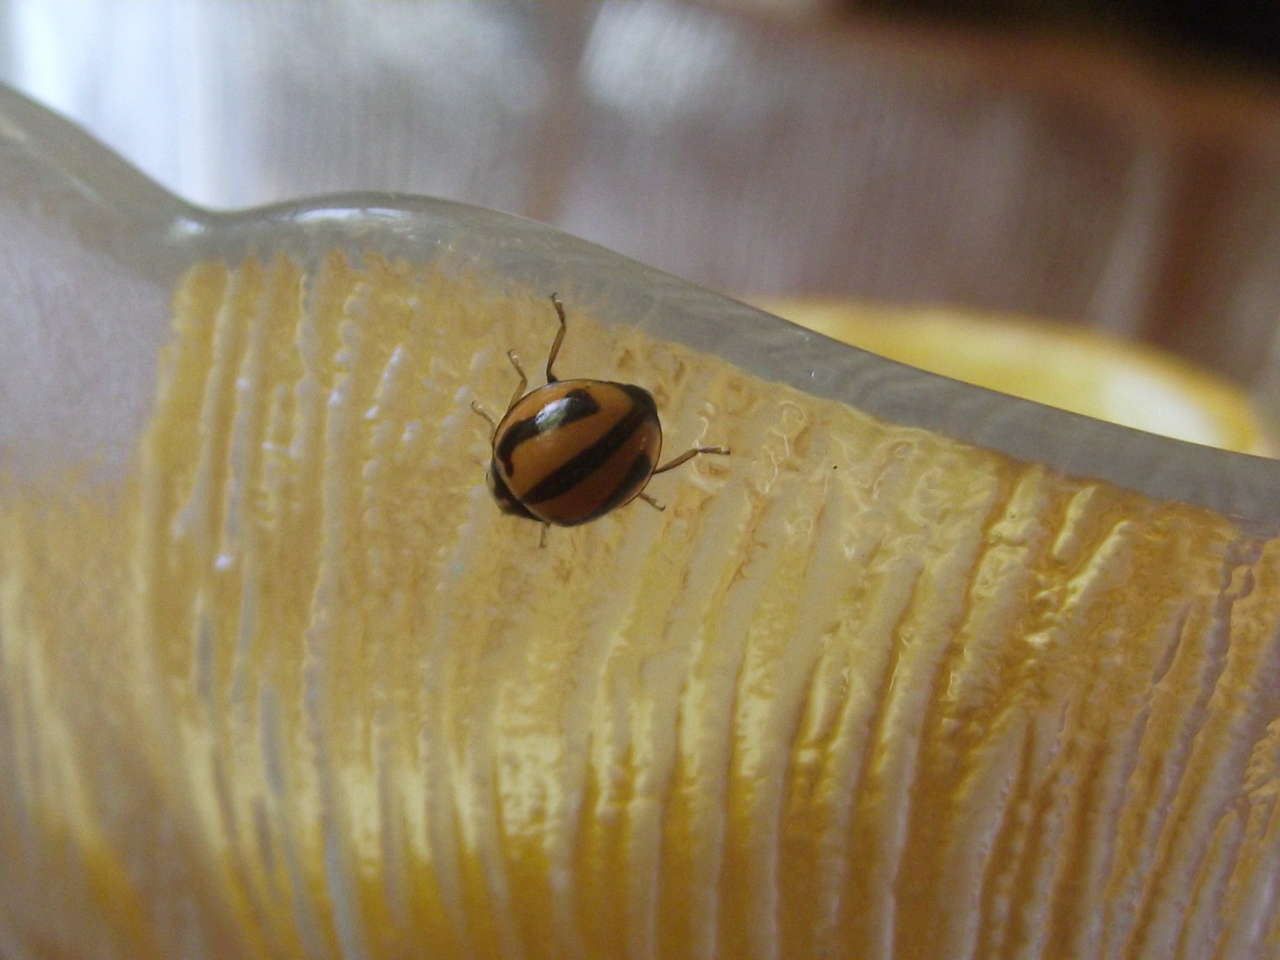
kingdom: Animalia
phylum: Arthropoda
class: Insecta
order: Coleoptera
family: Coccinellidae
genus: Micraspis
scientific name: Micraspis frenata
